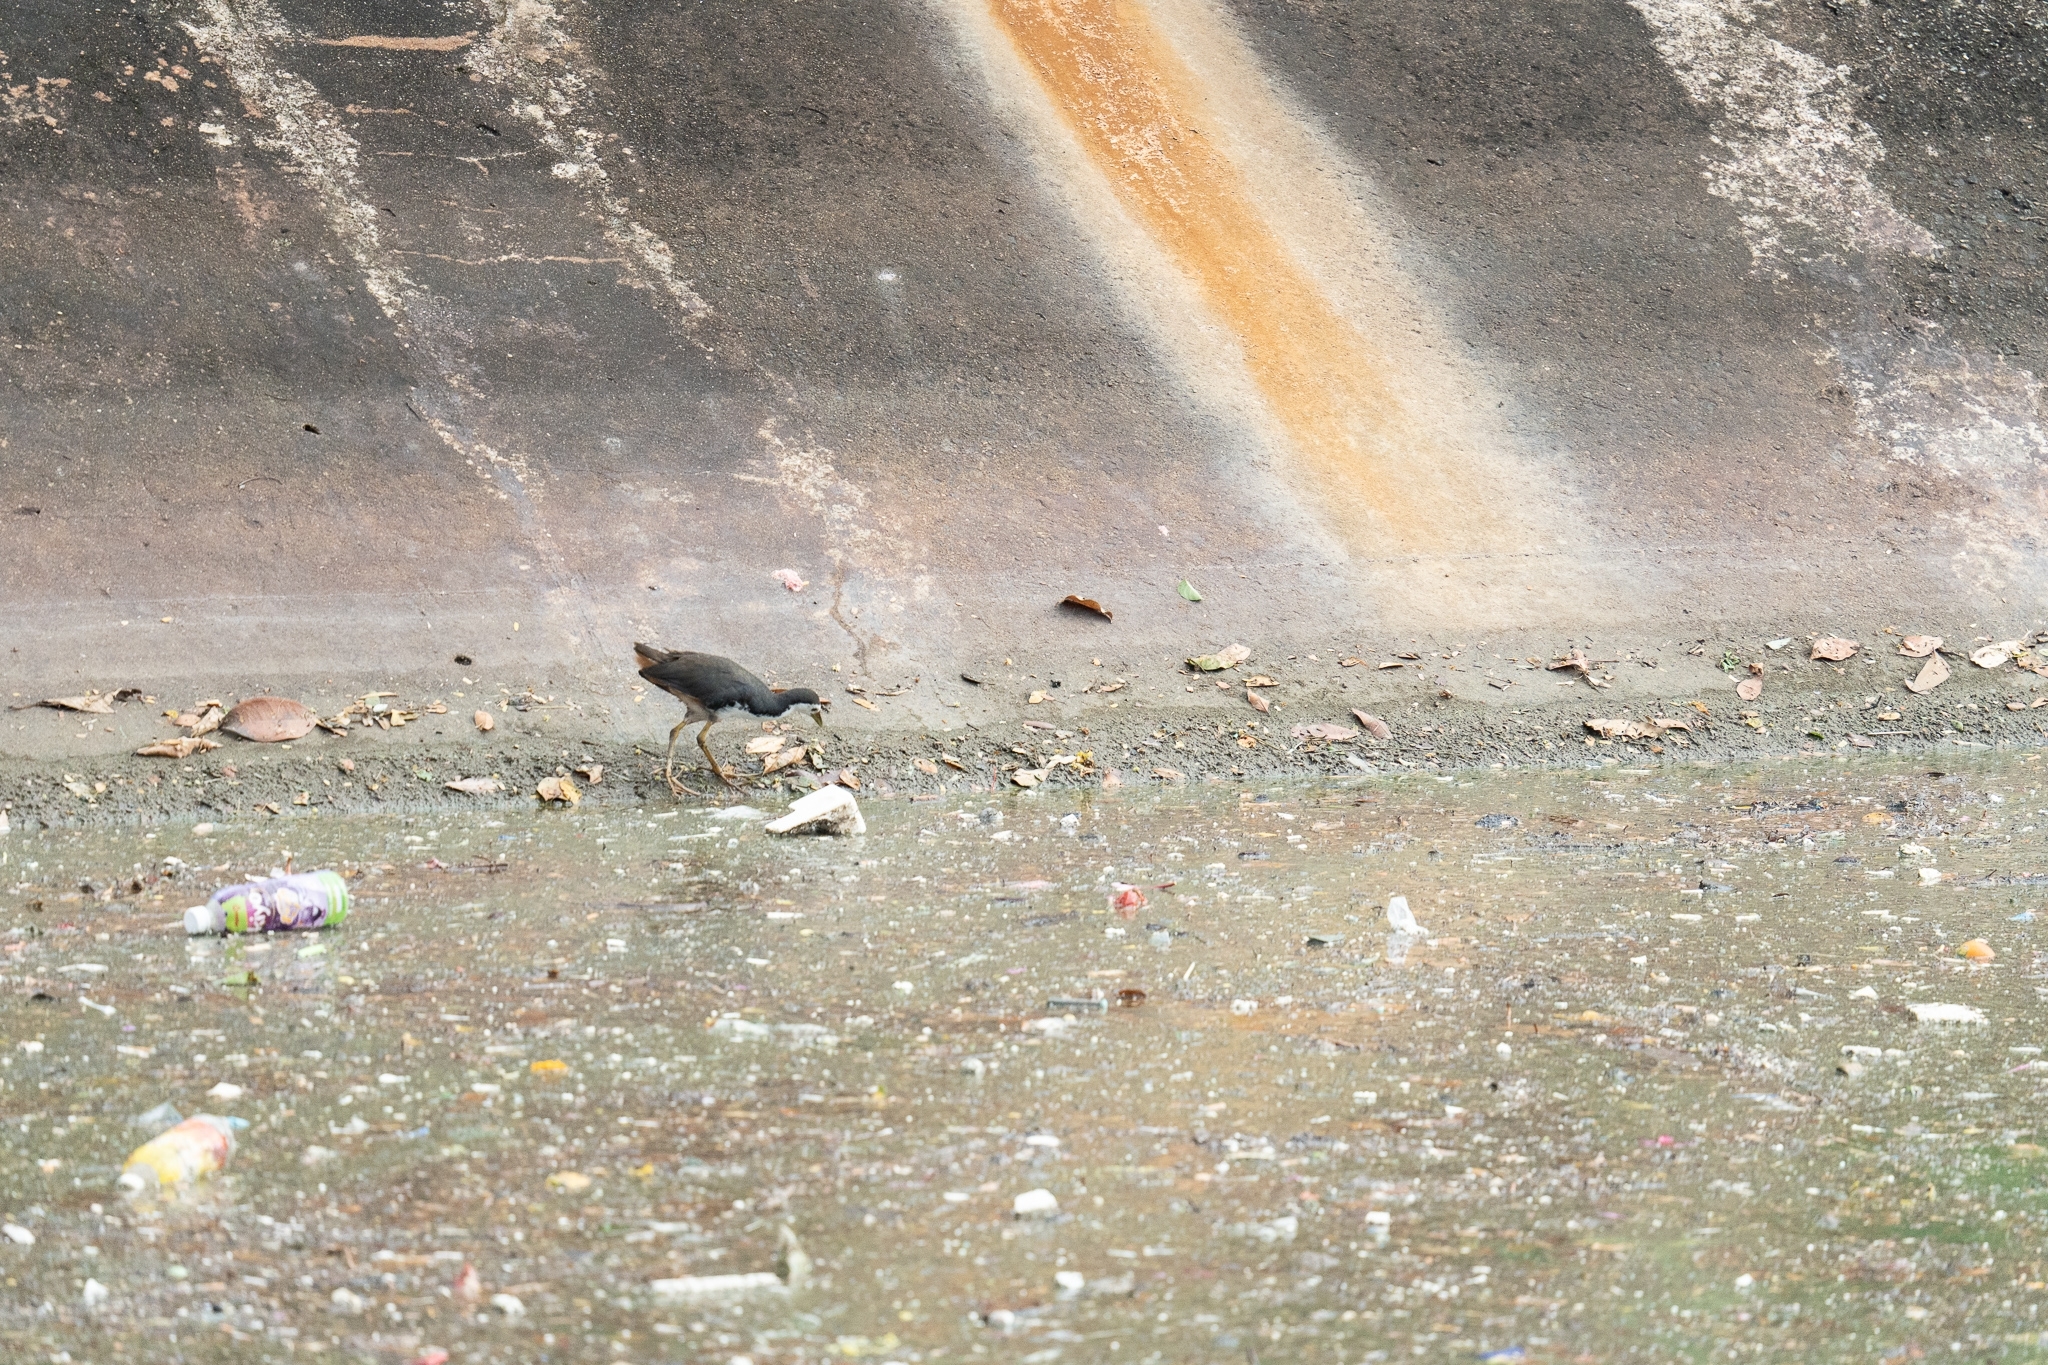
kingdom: Animalia
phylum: Chordata
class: Aves
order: Gruiformes
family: Rallidae
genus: Amaurornis
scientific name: Amaurornis phoenicurus
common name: White-breasted waterhen
